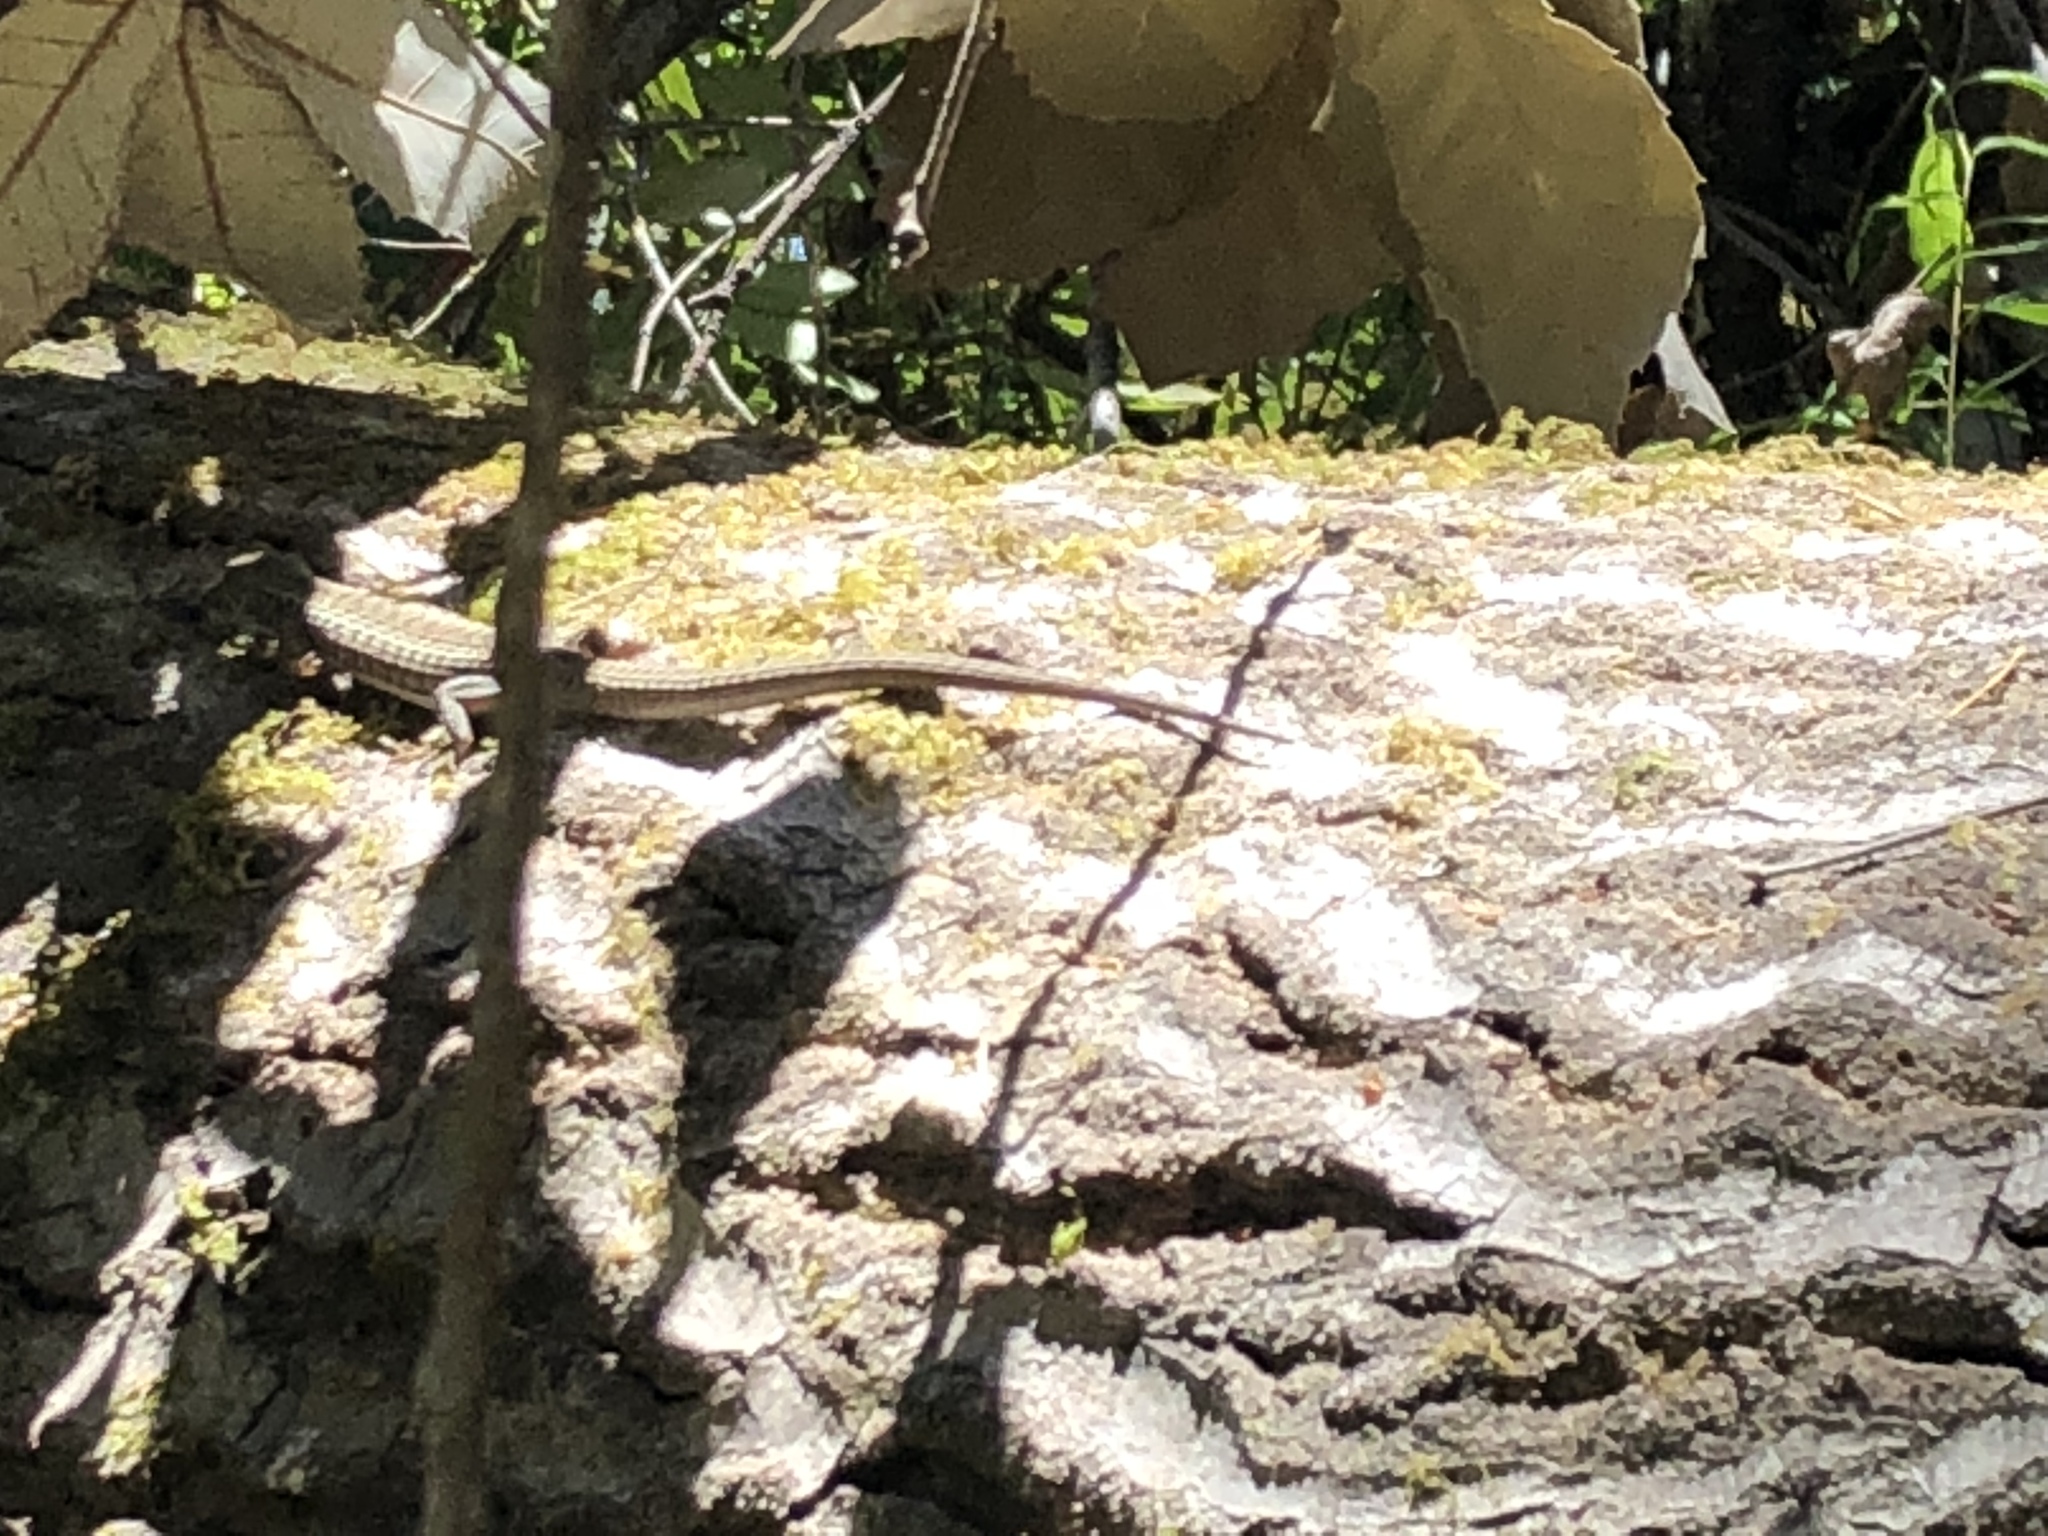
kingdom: Animalia
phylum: Chordata
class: Squamata
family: Anguidae
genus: Elgaria
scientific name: Elgaria coerulea
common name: Northern alligator lizard
